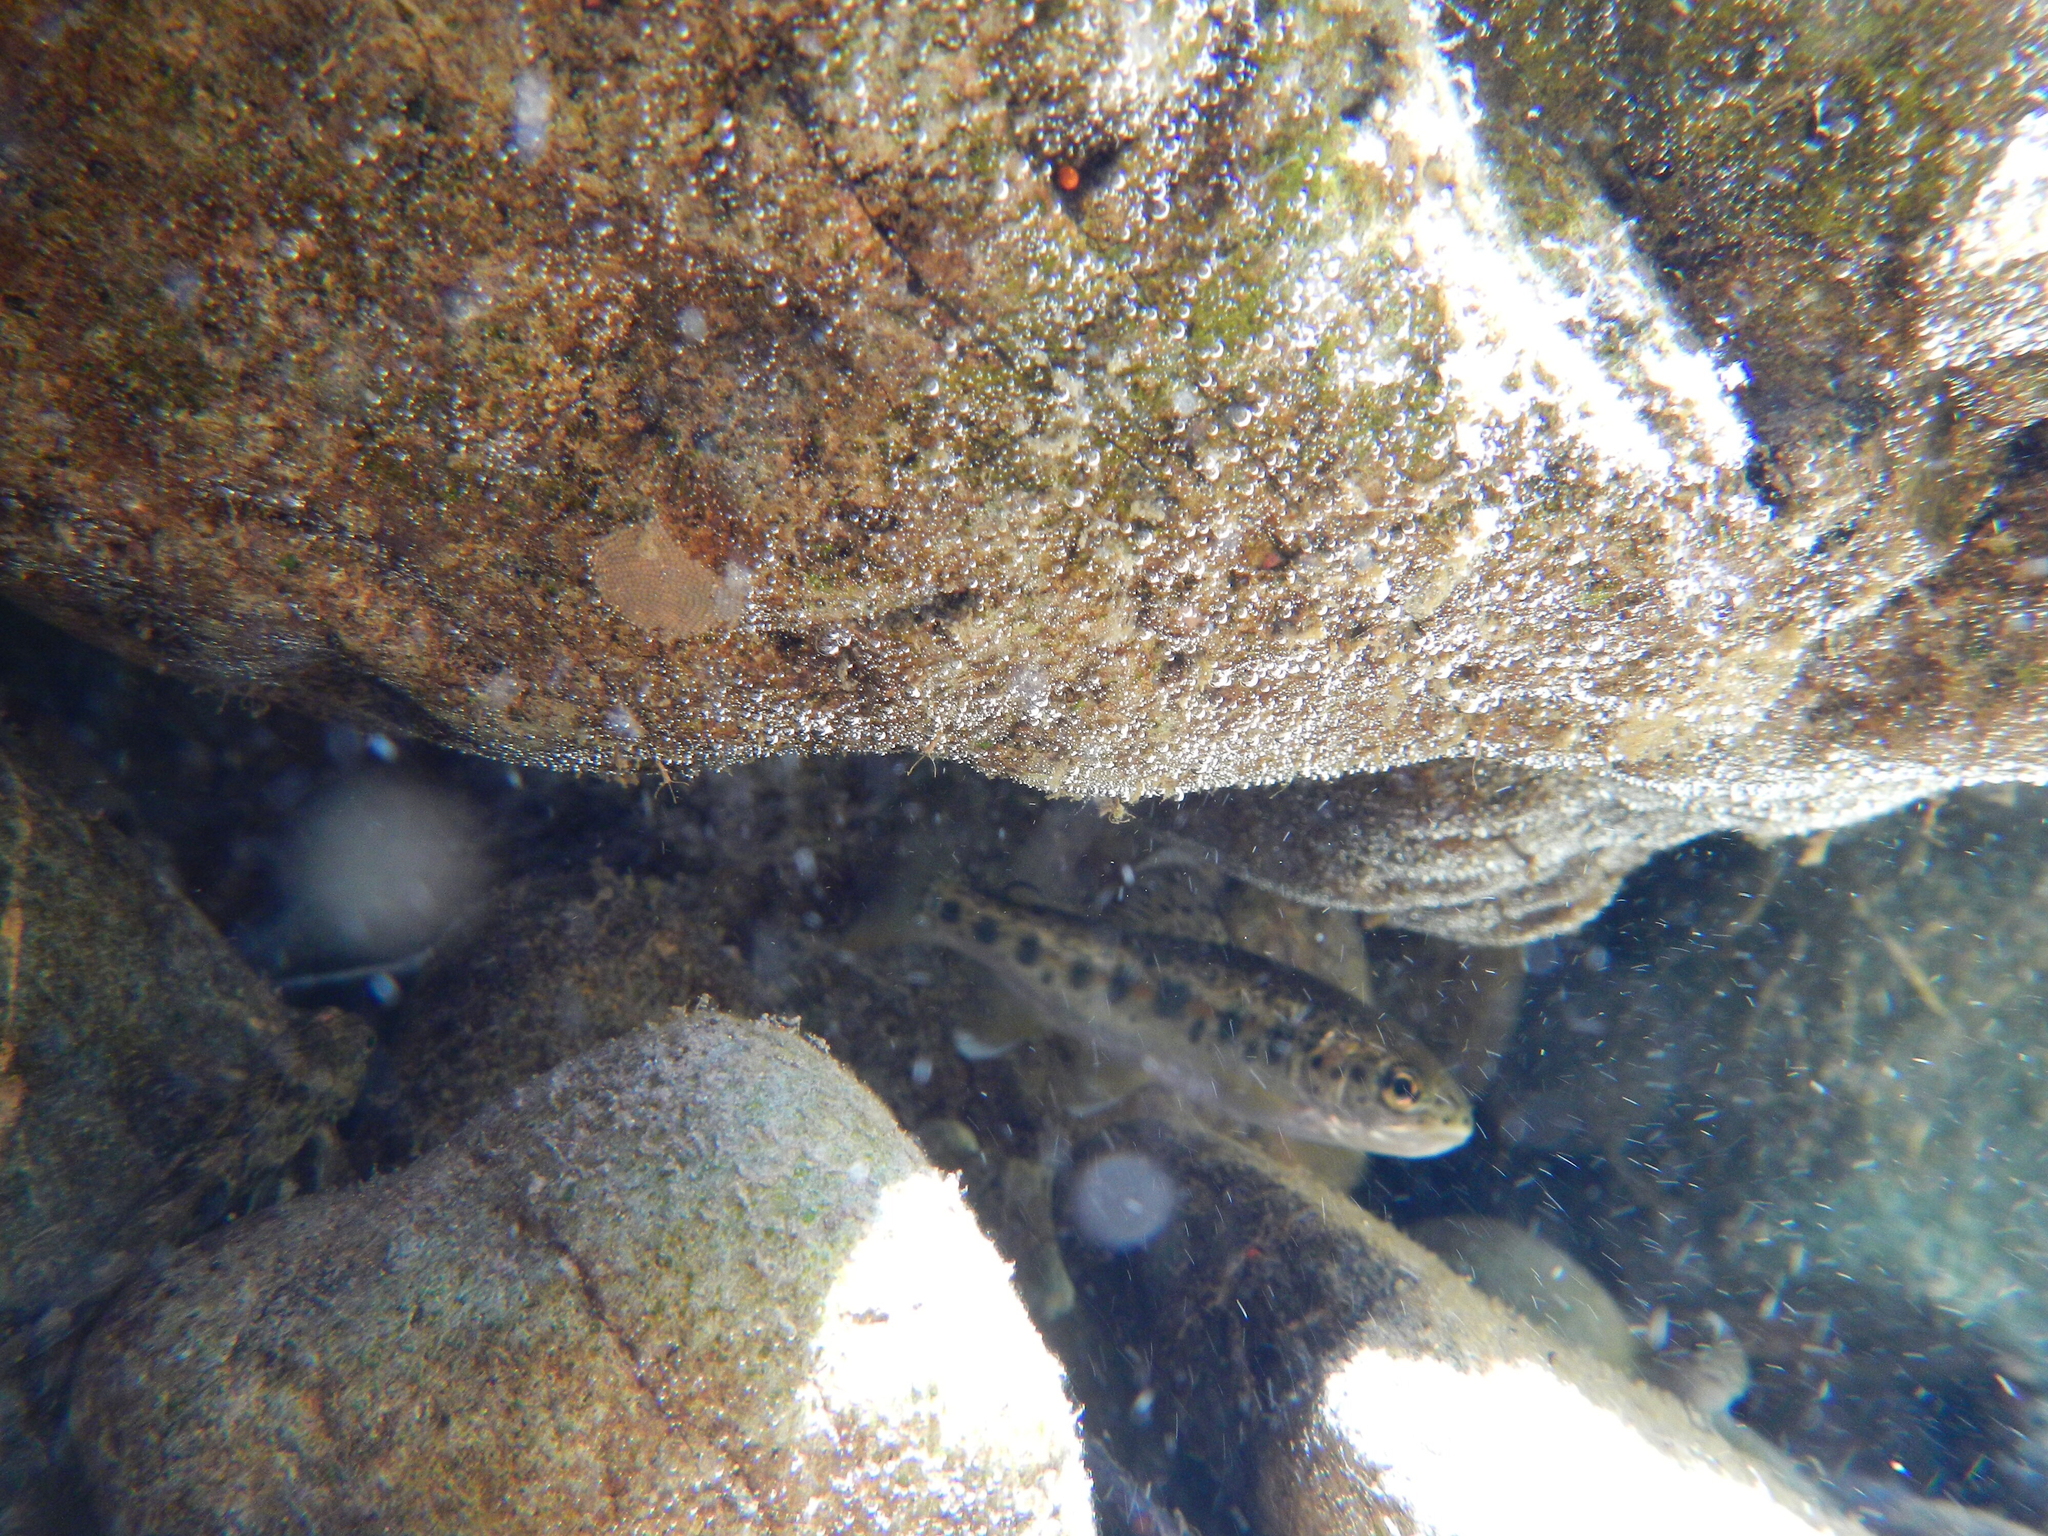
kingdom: Animalia
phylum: Chordata
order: Salmoniformes
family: Salmonidae
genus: Oncorhynchus
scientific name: Oncorhynchus clarkii
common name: Cutthroat trout
